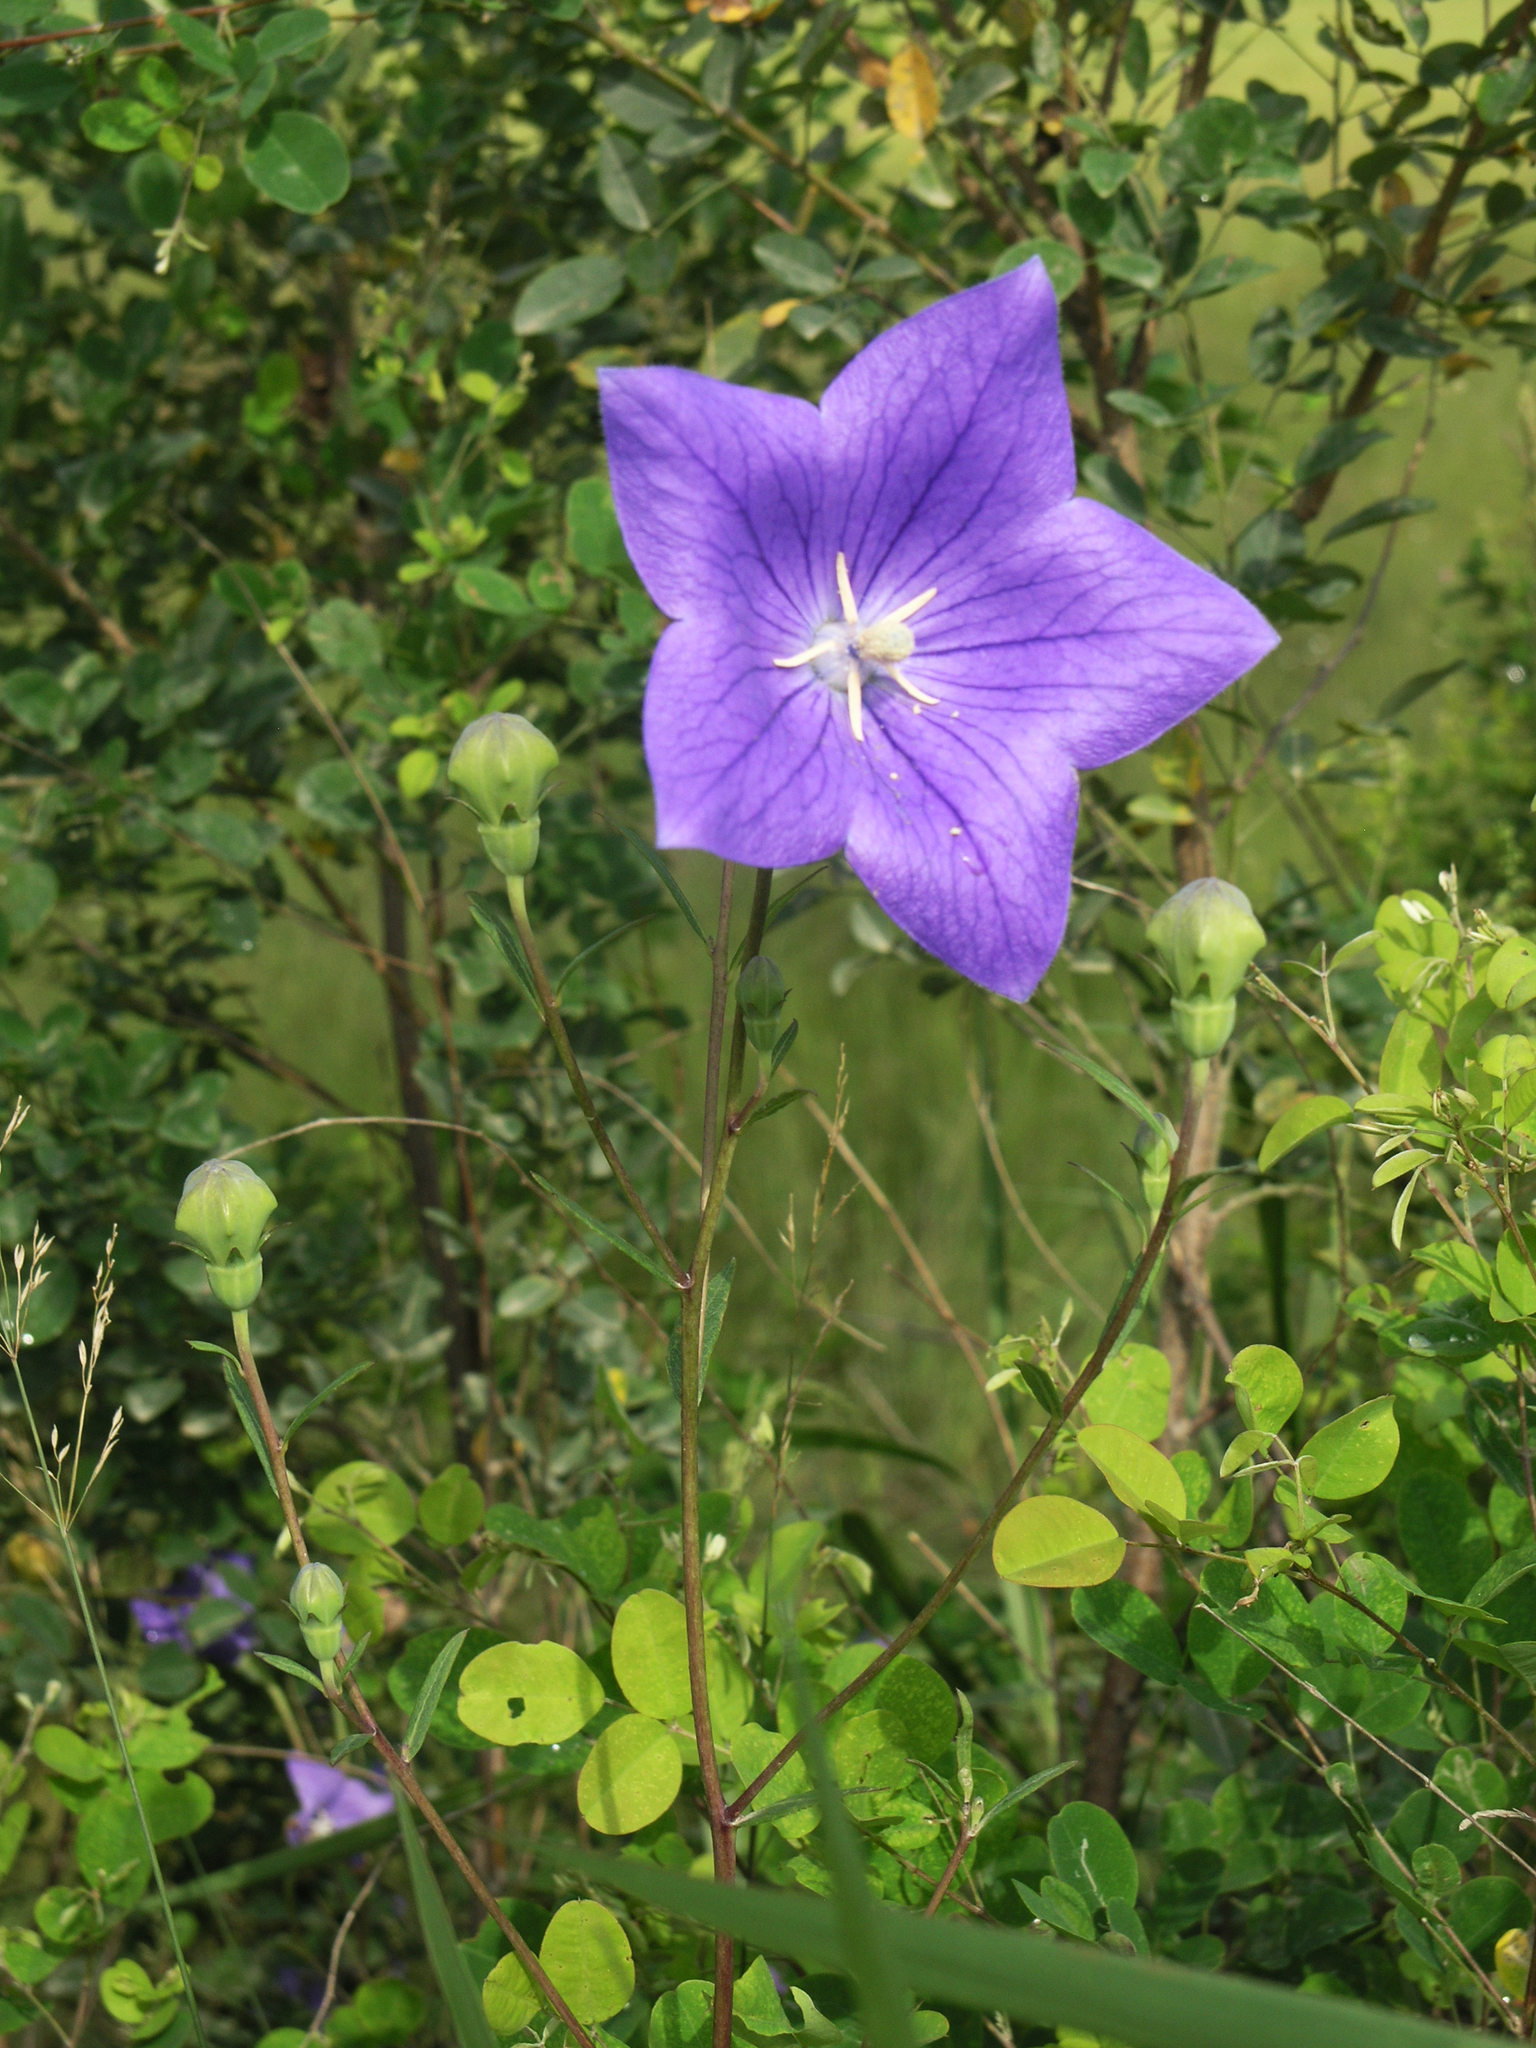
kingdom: Plantae
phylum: Tracheophyta
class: Magnoliopsida
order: Asterales
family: Campanulaceae
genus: Platycodon
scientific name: Platycodon grandiflorus
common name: Balloon-flower
